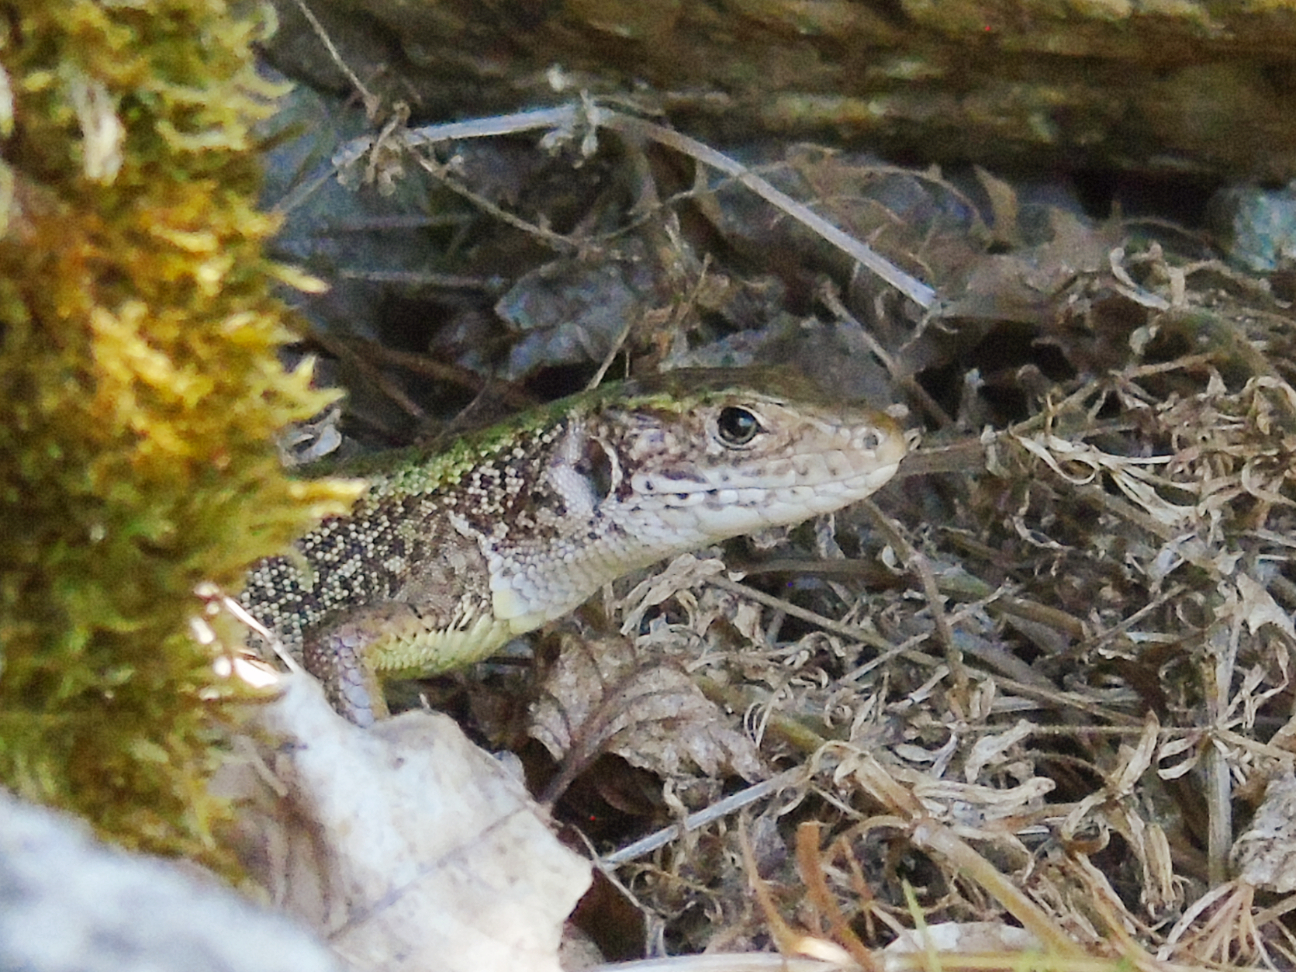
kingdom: Animalia
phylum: Chordata
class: Squamata
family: Lacertidae
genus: Lacerta
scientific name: Lacerta viridis
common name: European green lizard
